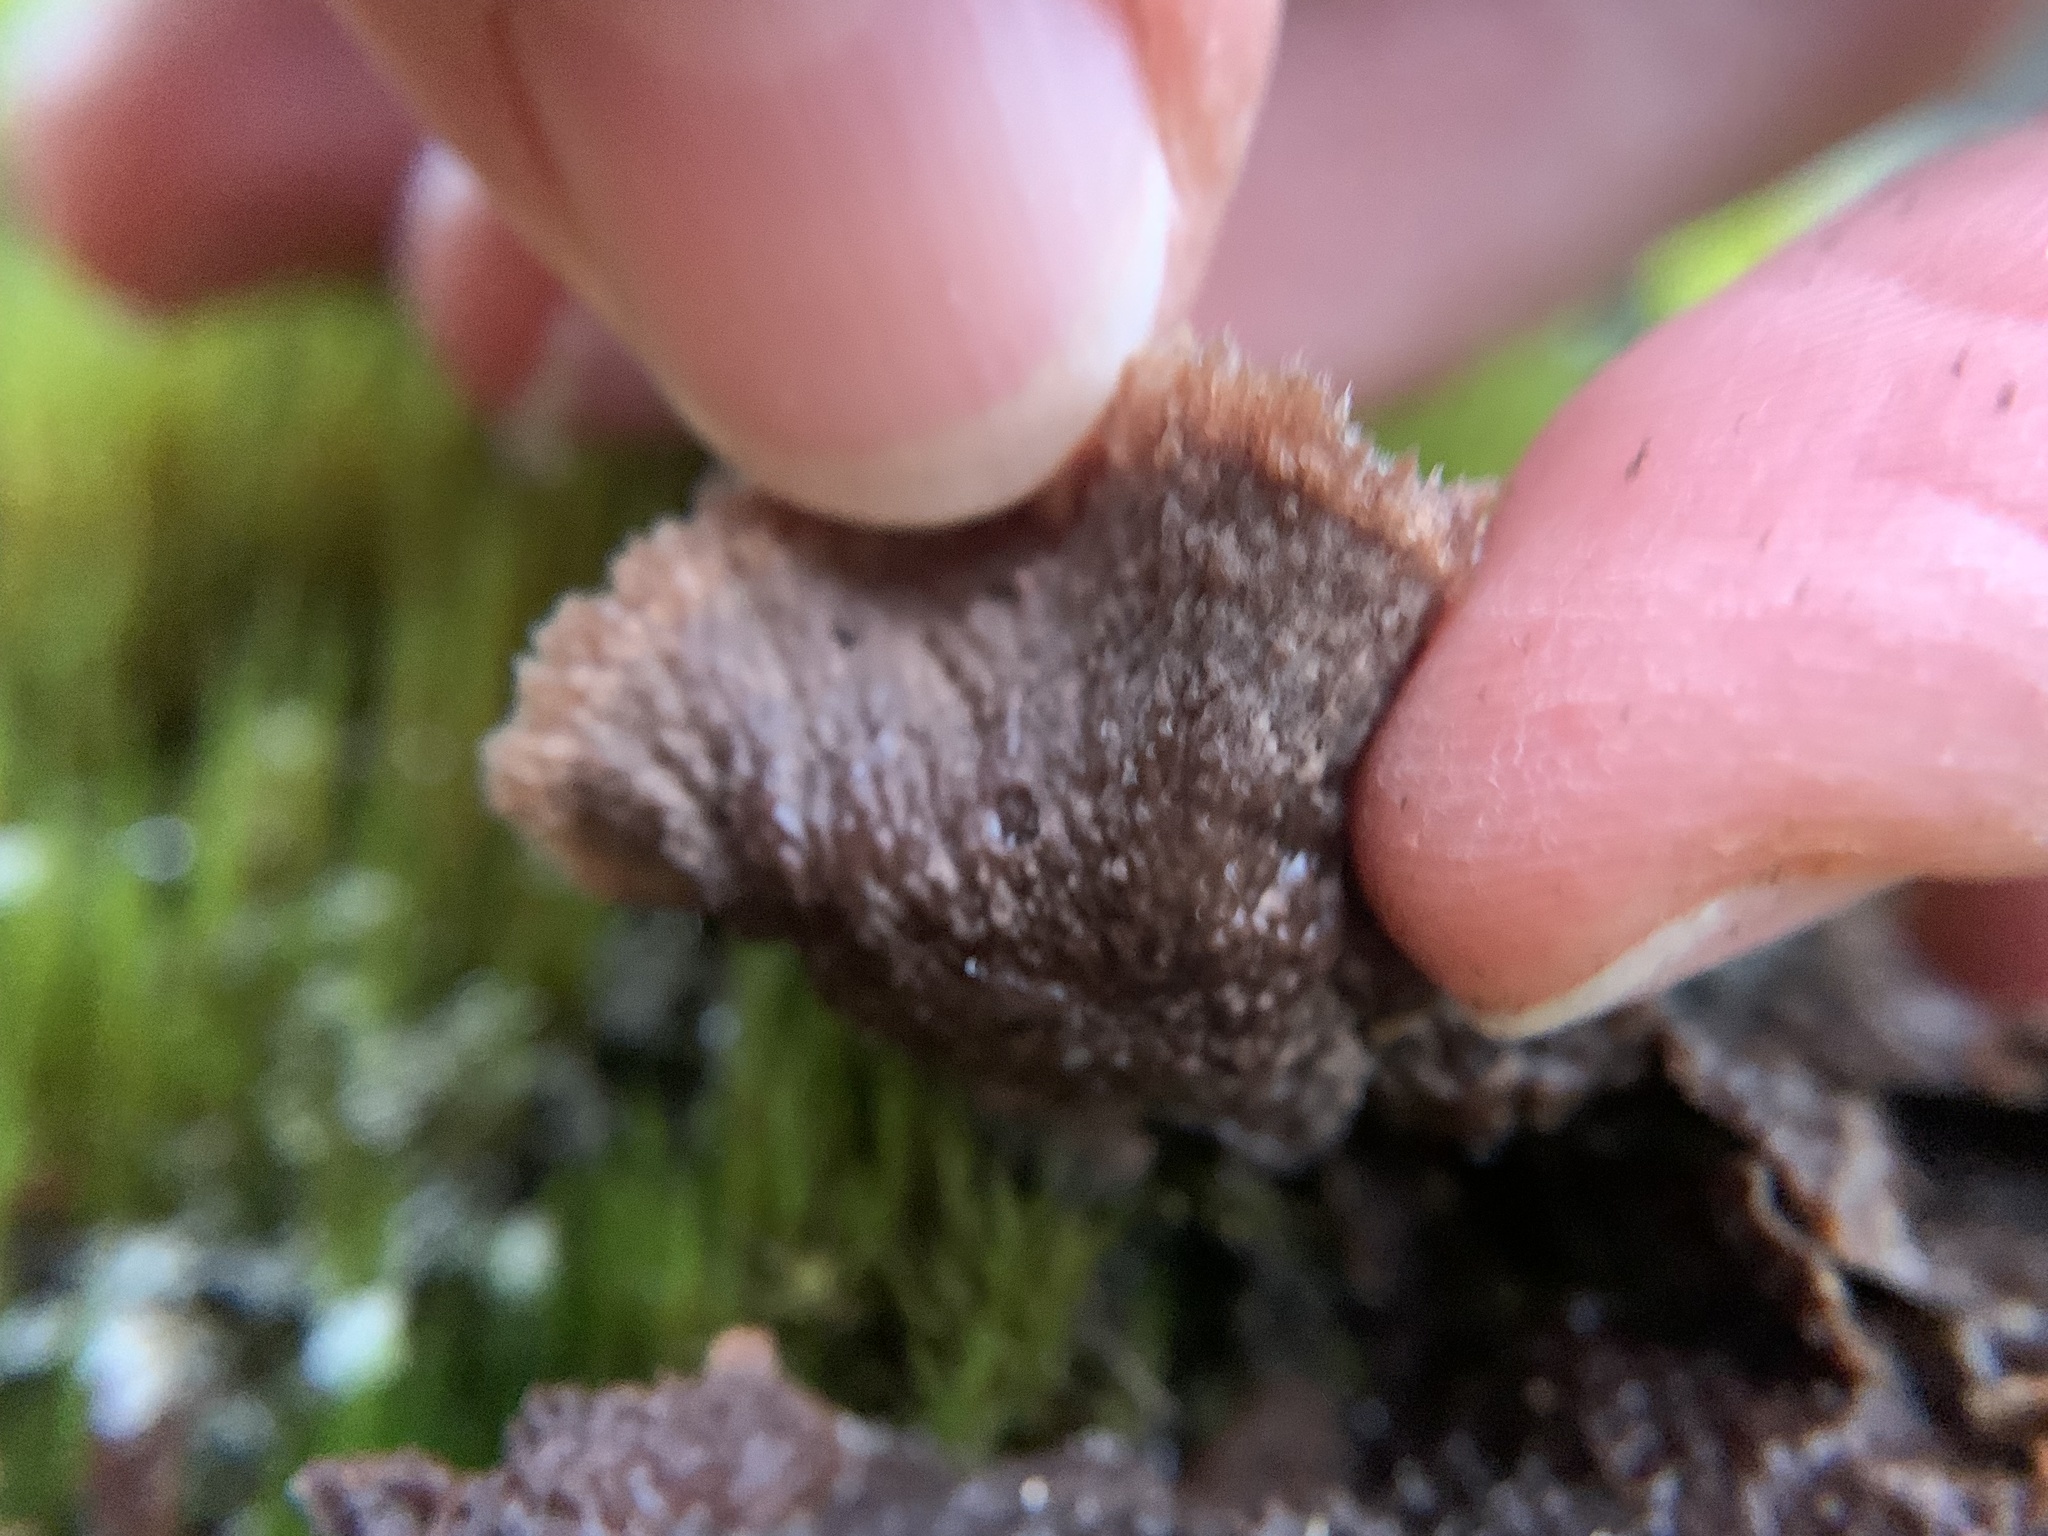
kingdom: Fungi
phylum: Basidiomycota
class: Agaricomycetes
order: Thelephorales
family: Thelephoraceae
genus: Thelephora
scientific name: Thelephora terrestris
